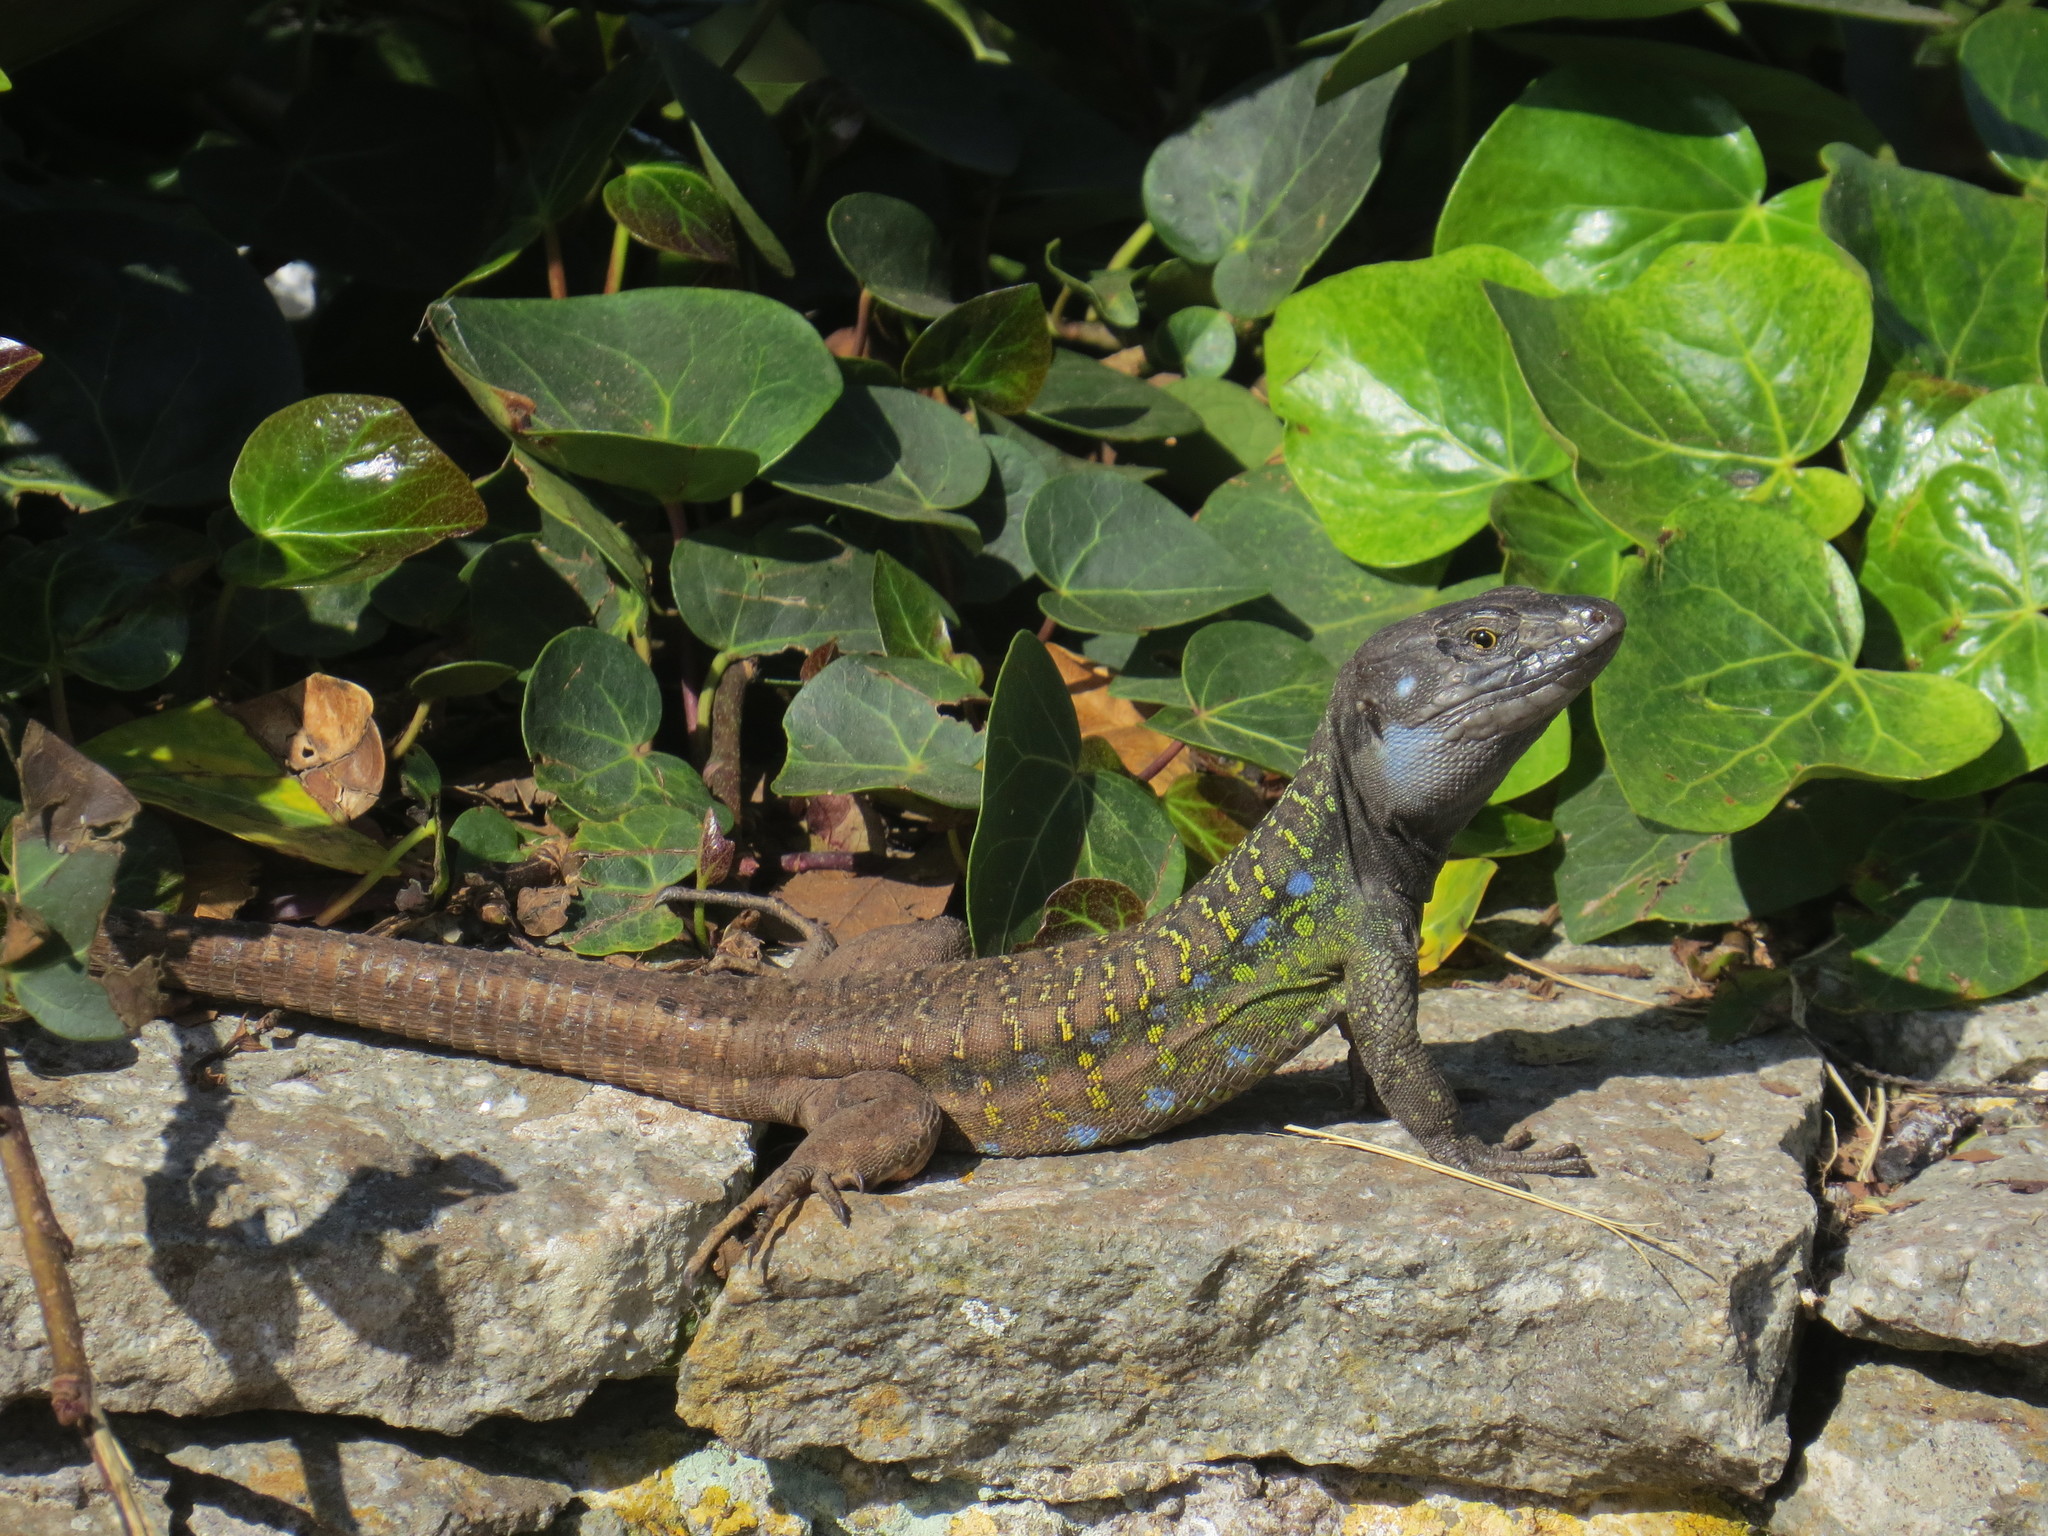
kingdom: Animalia
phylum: Chordata
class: Squamata
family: Lacertidae
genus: Gallotia
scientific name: Gallotia galloti
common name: Gallot's lizard
